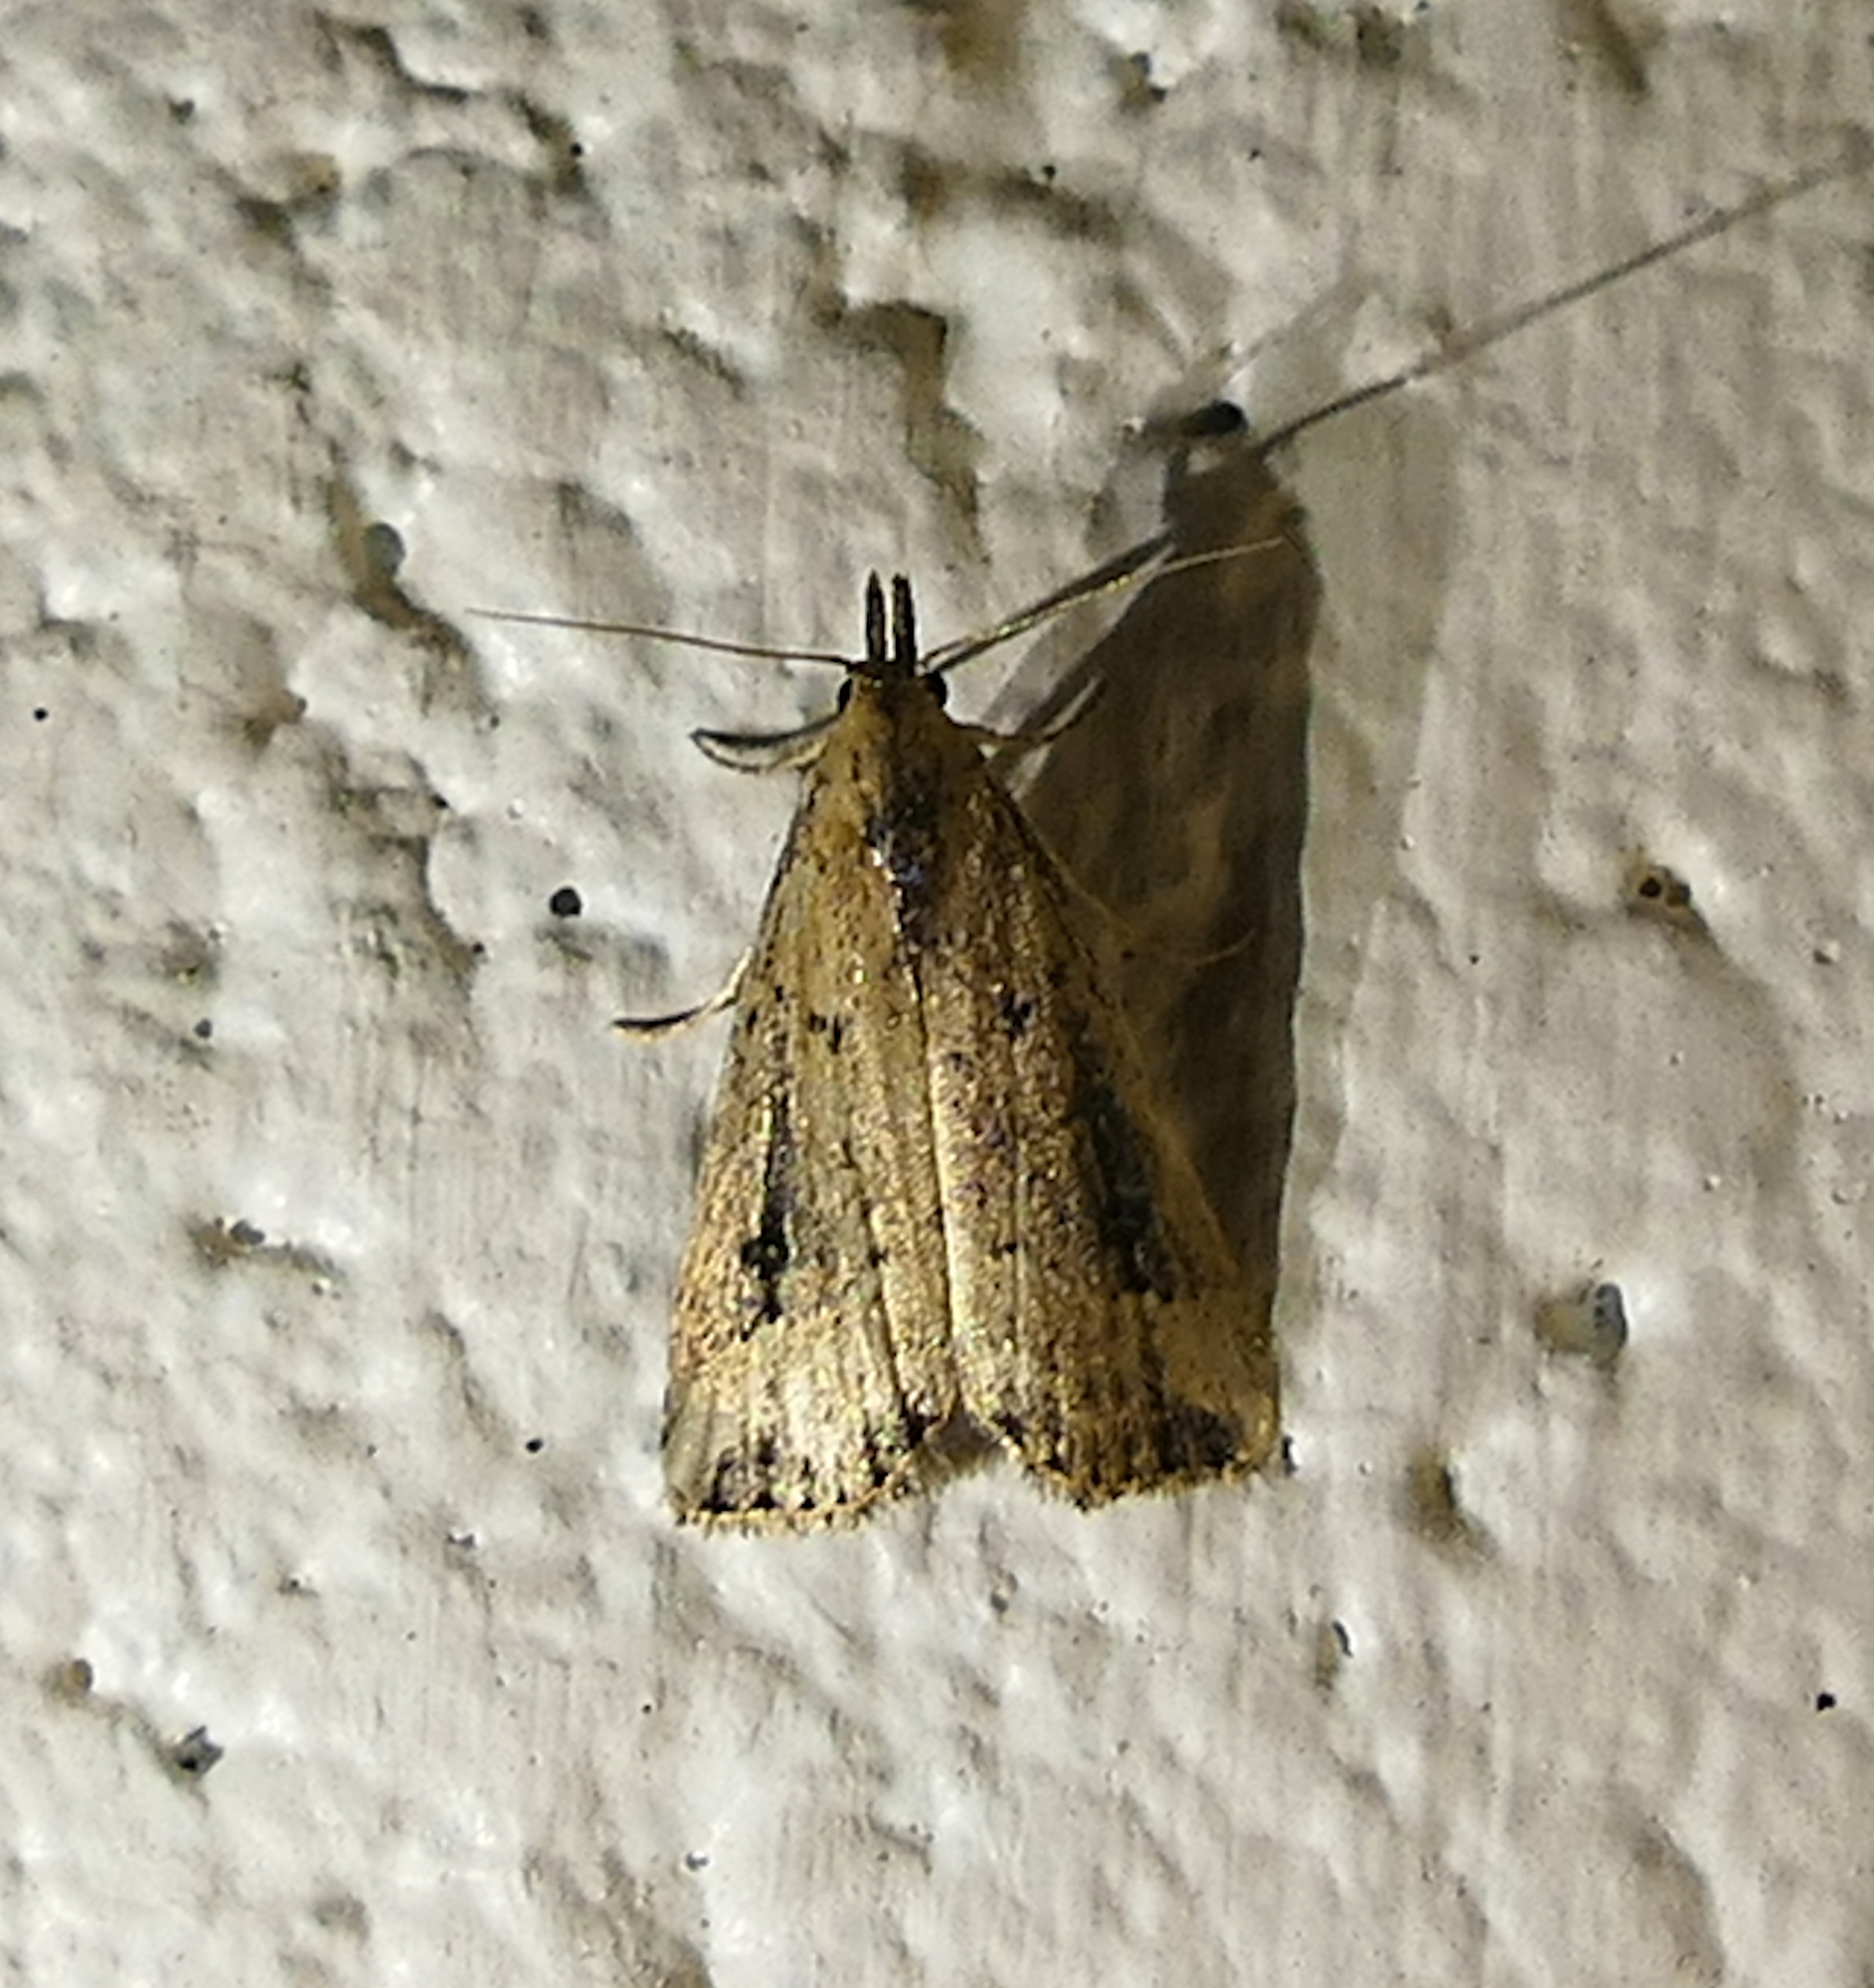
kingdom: Animalia
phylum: Arthropoda
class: Insecta
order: Lepidoptera
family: Erebidae
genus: Schrankia
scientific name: Schrankia
